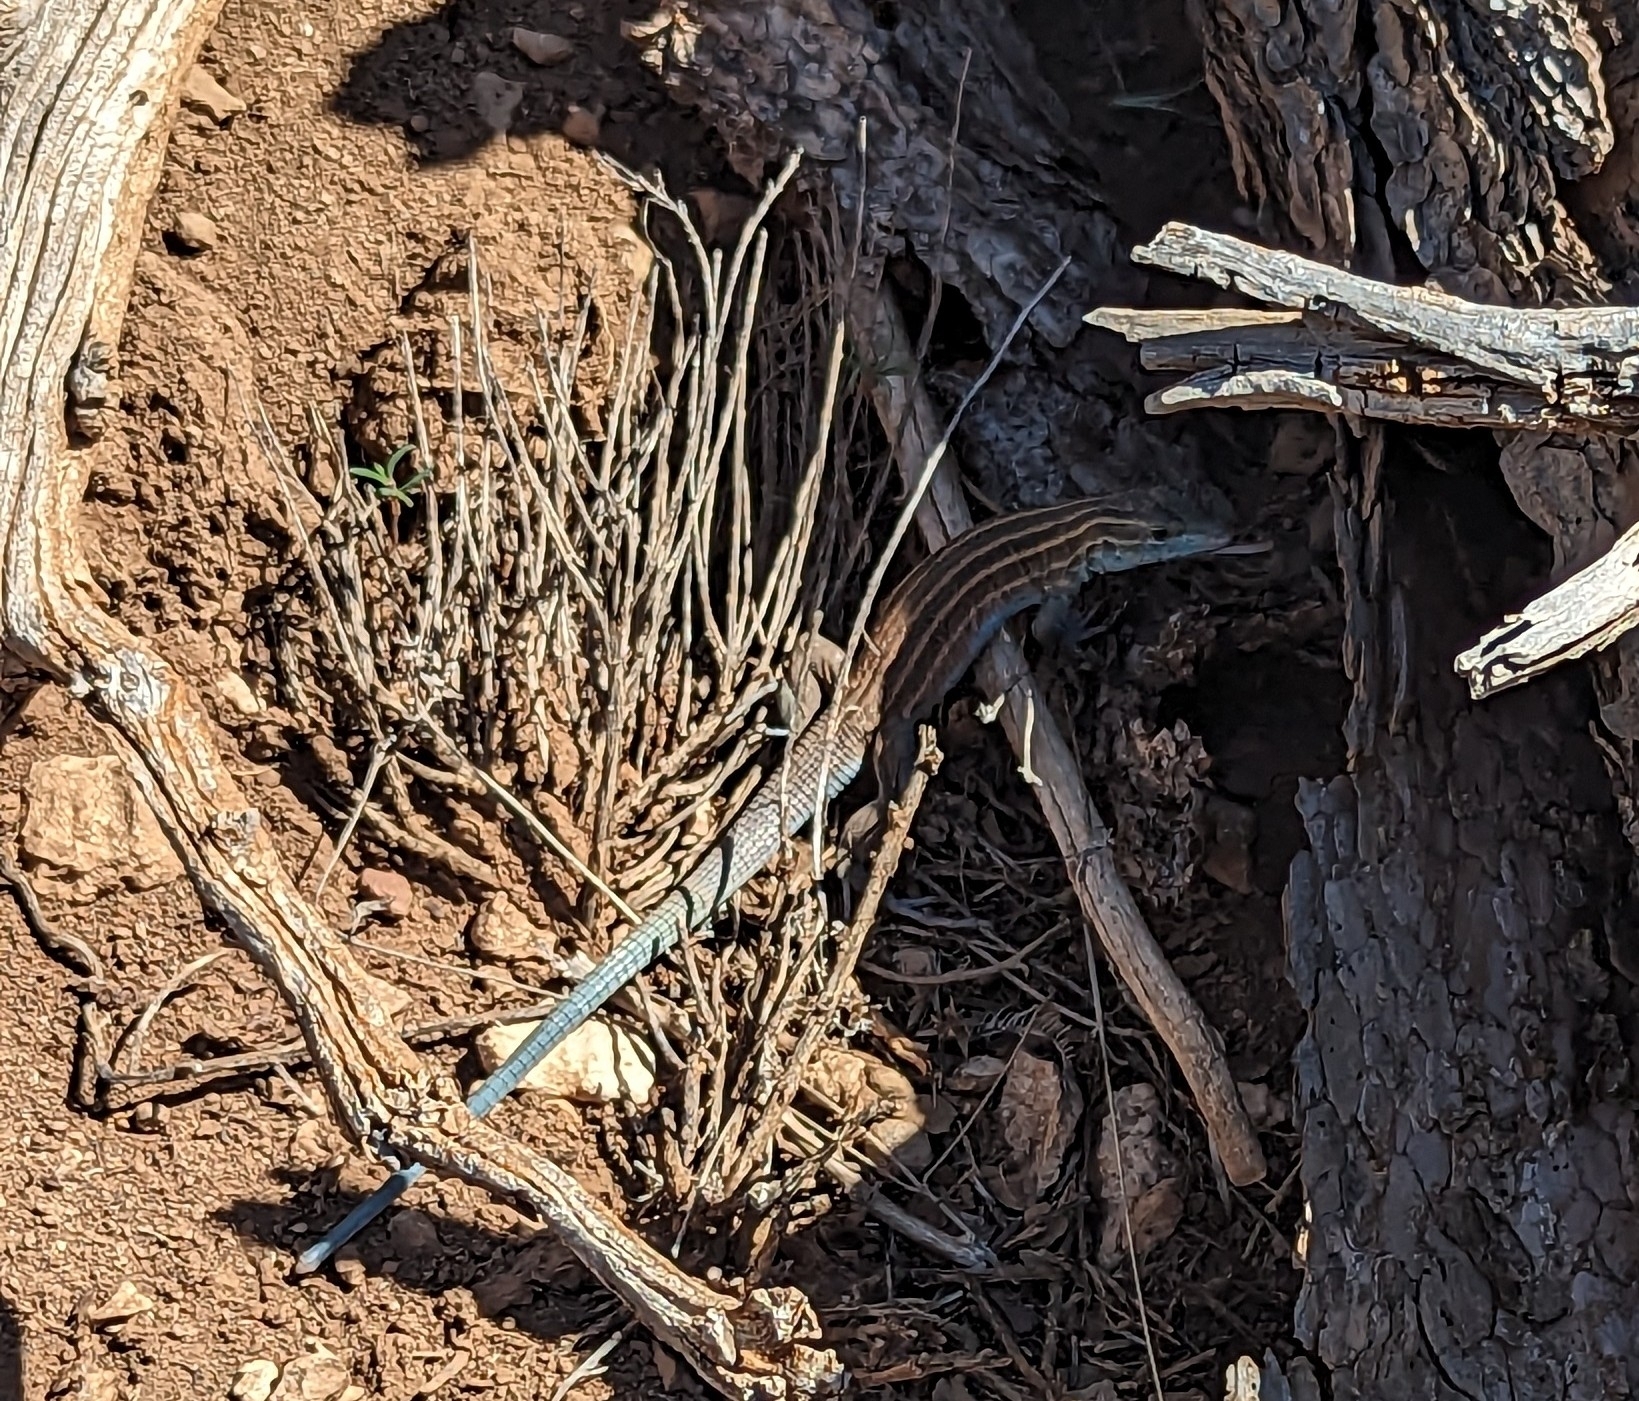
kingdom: Animalia
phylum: Chordata
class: Squamata
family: Teiidae
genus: Aspidoscelis
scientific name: Aspidoscelis velox
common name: Plateau striped whiptail
